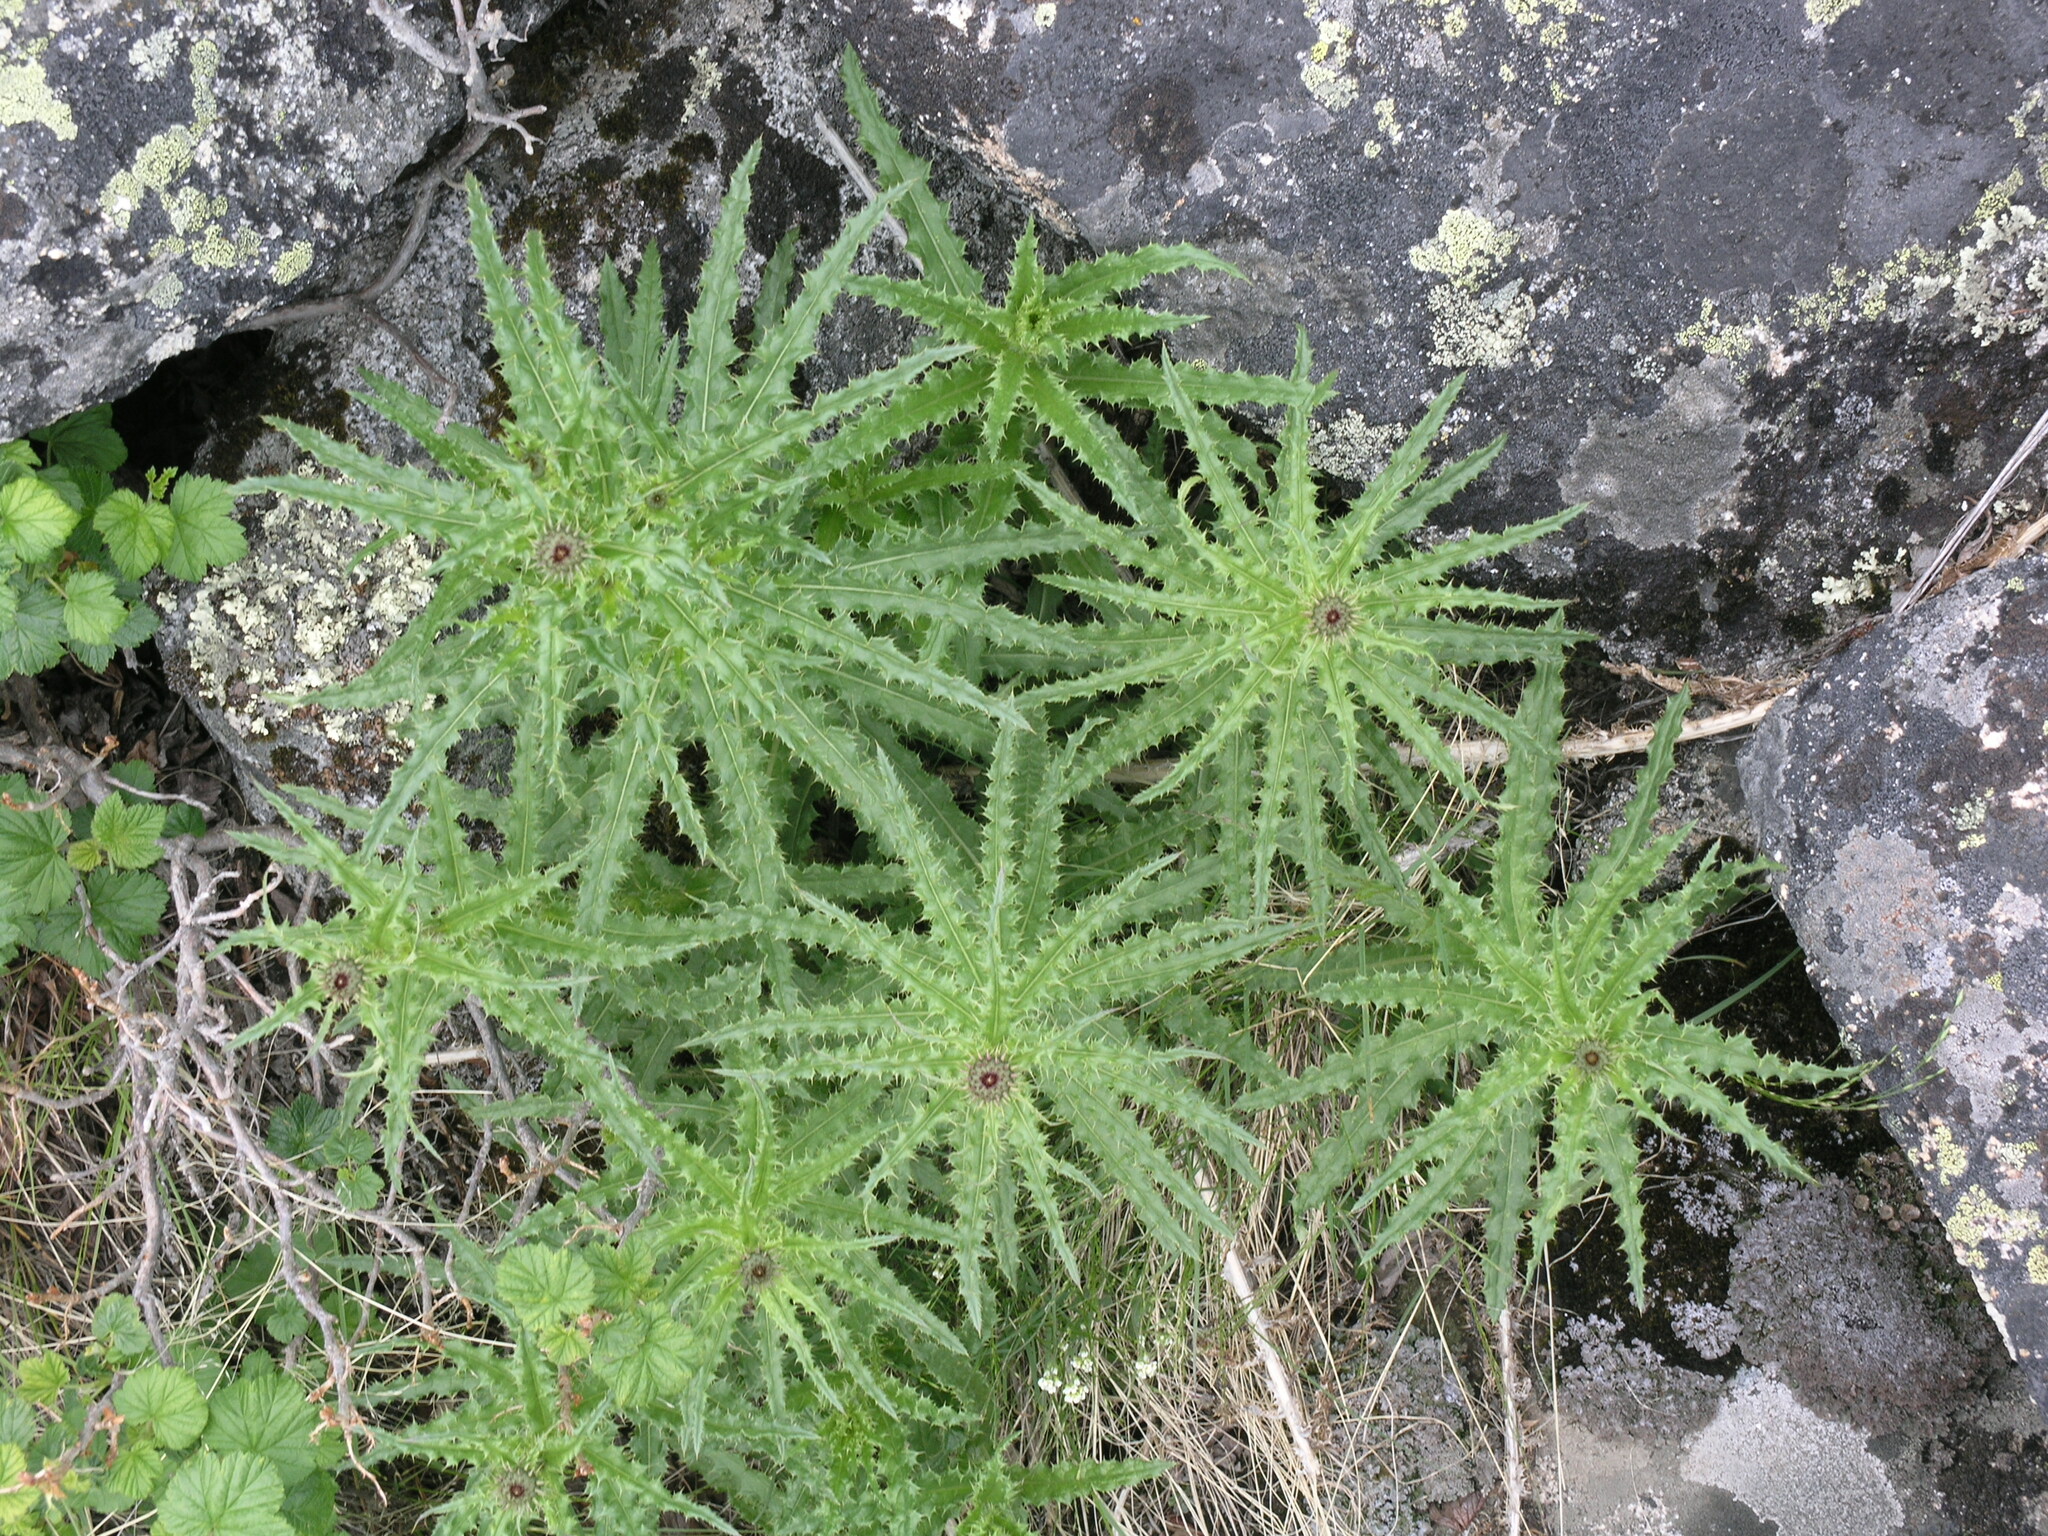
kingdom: Plantae
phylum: Tracheophyta
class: Magnoliopsida
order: Asterales
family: Asteraceae
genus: Cirsium
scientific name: Cirsium serratuloides
